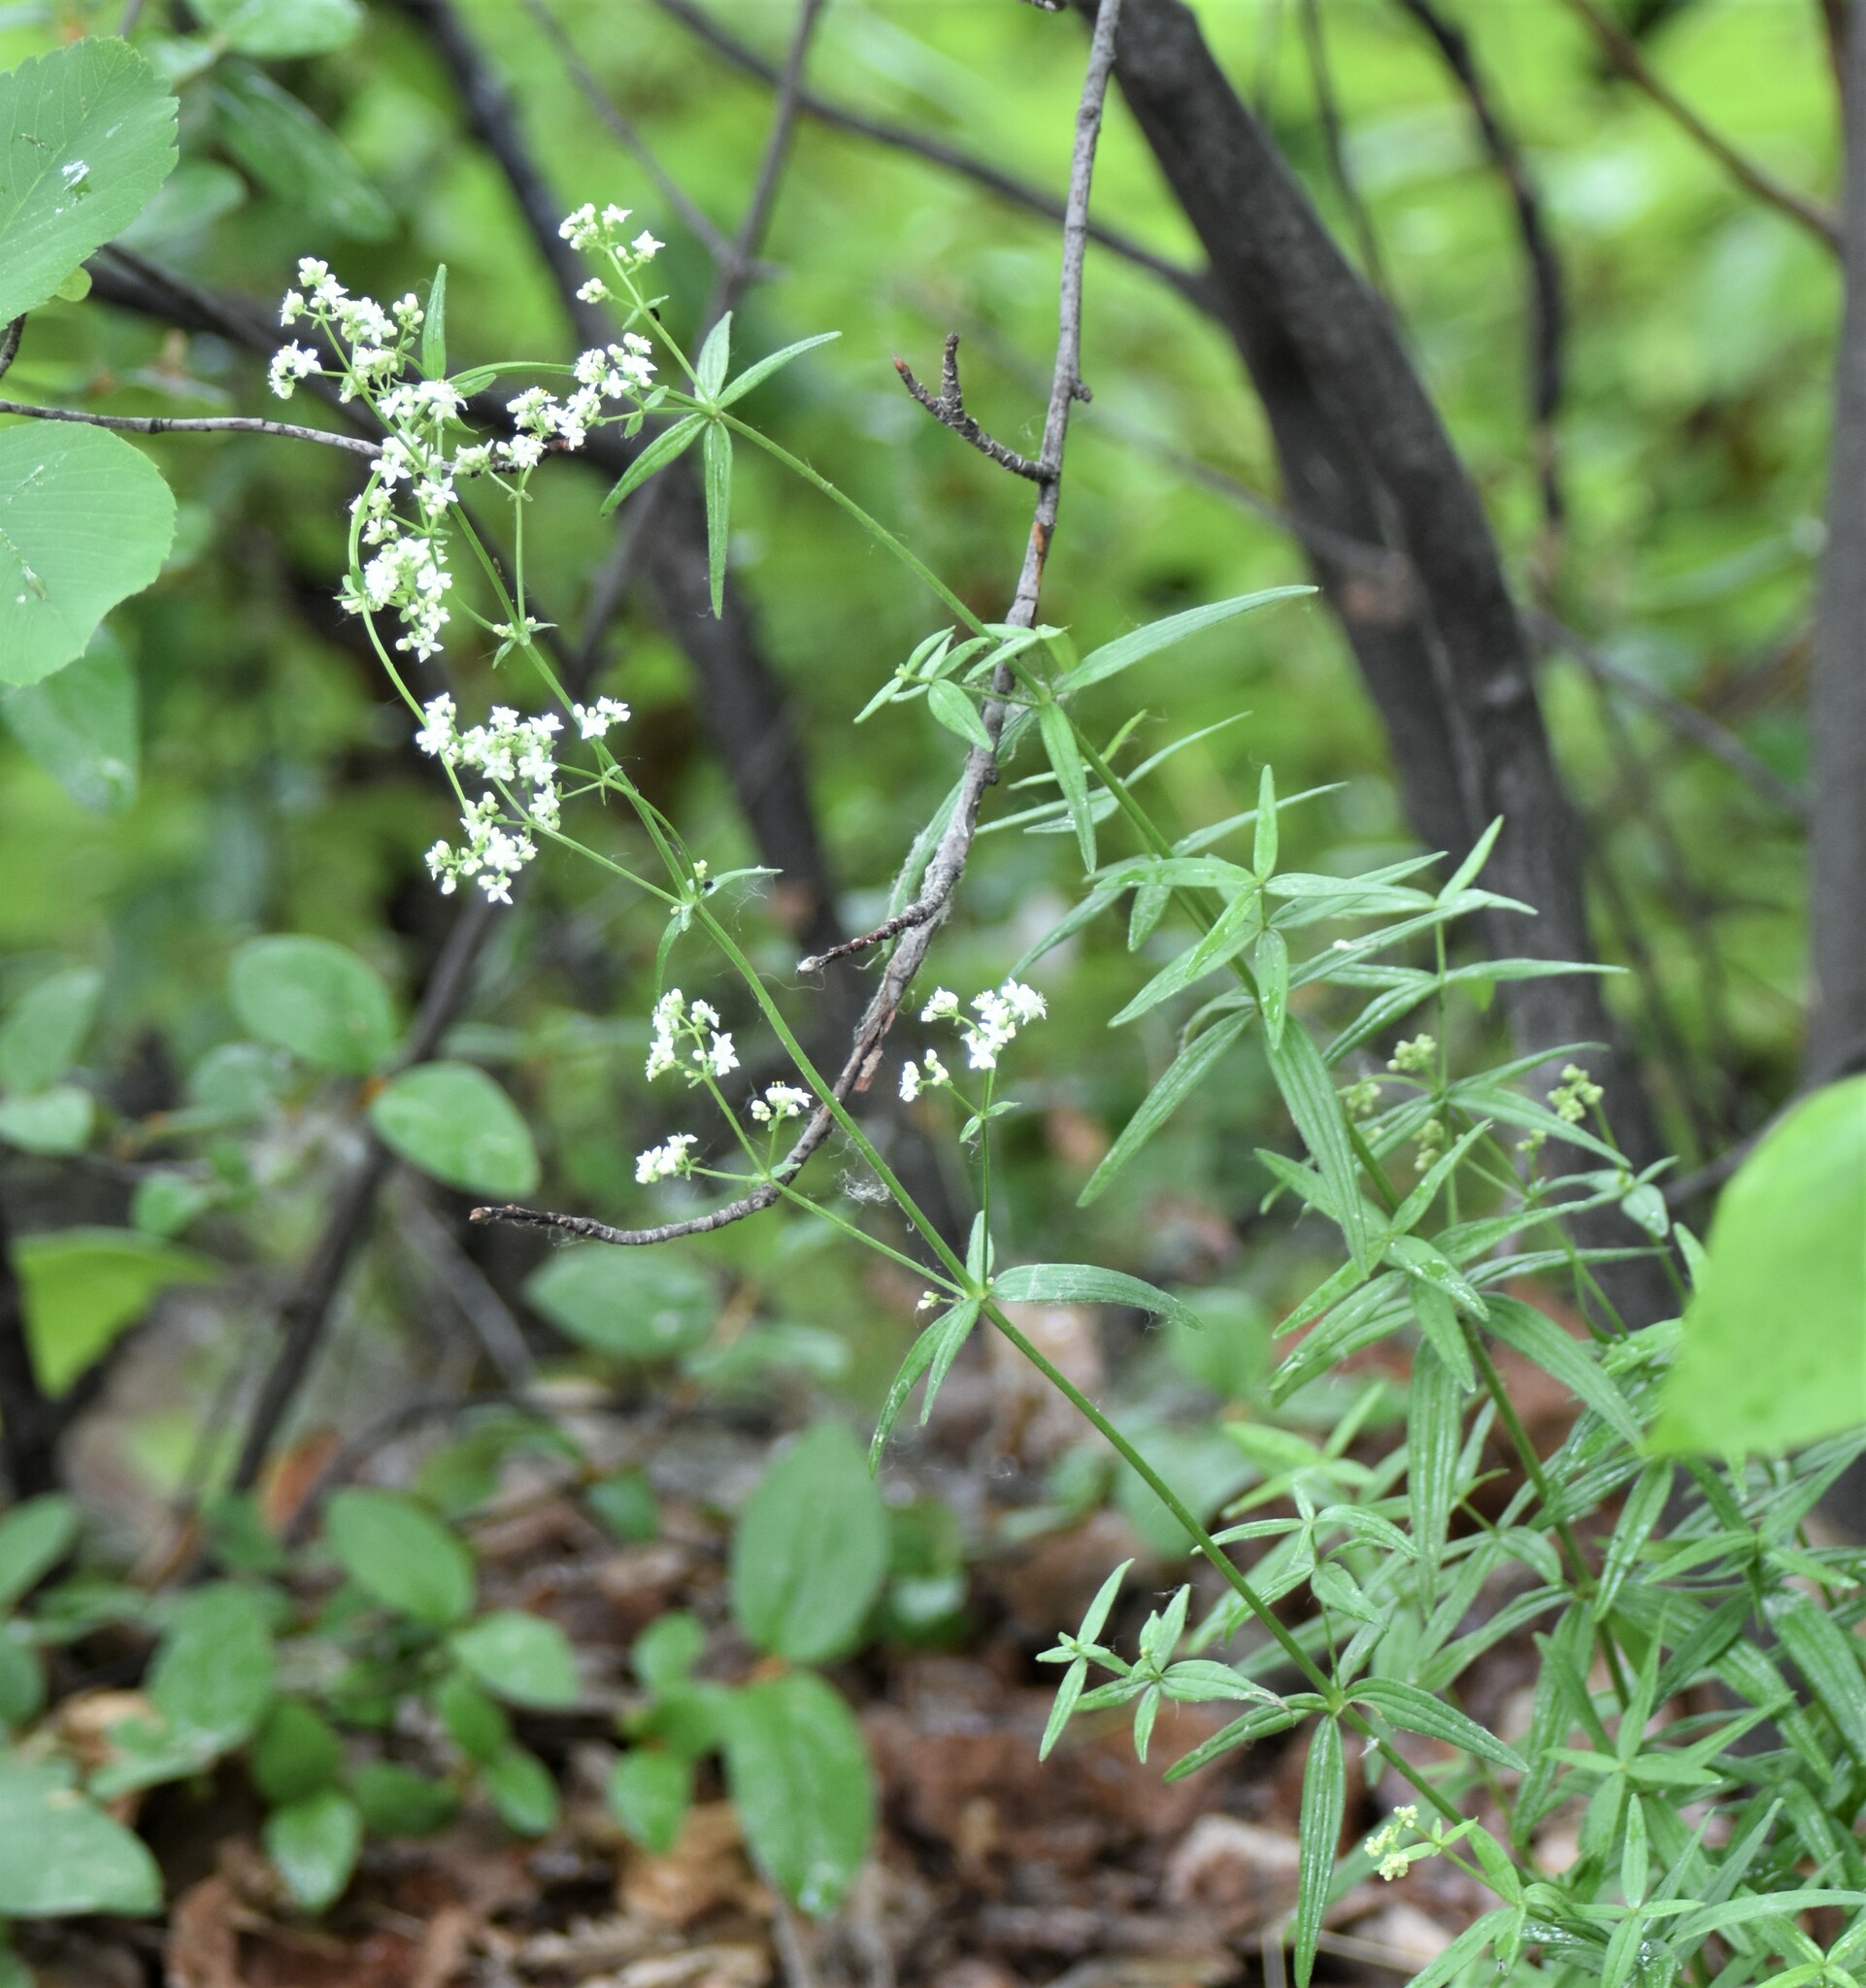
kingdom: Plantae
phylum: Tracheophyta
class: Magnoliopsida
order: Gentianales
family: Rubiaceae
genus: Galium
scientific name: Galium boreale
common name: Northern bedstraw
